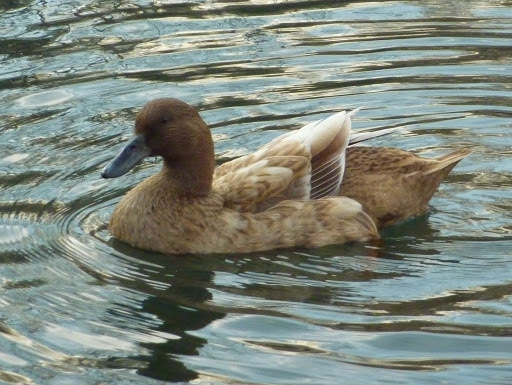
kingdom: Animalia
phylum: Chordata
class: Aves
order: Anseriformes
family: Anatidae
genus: Anas
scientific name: Anas platyrhynchos
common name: Mallard
